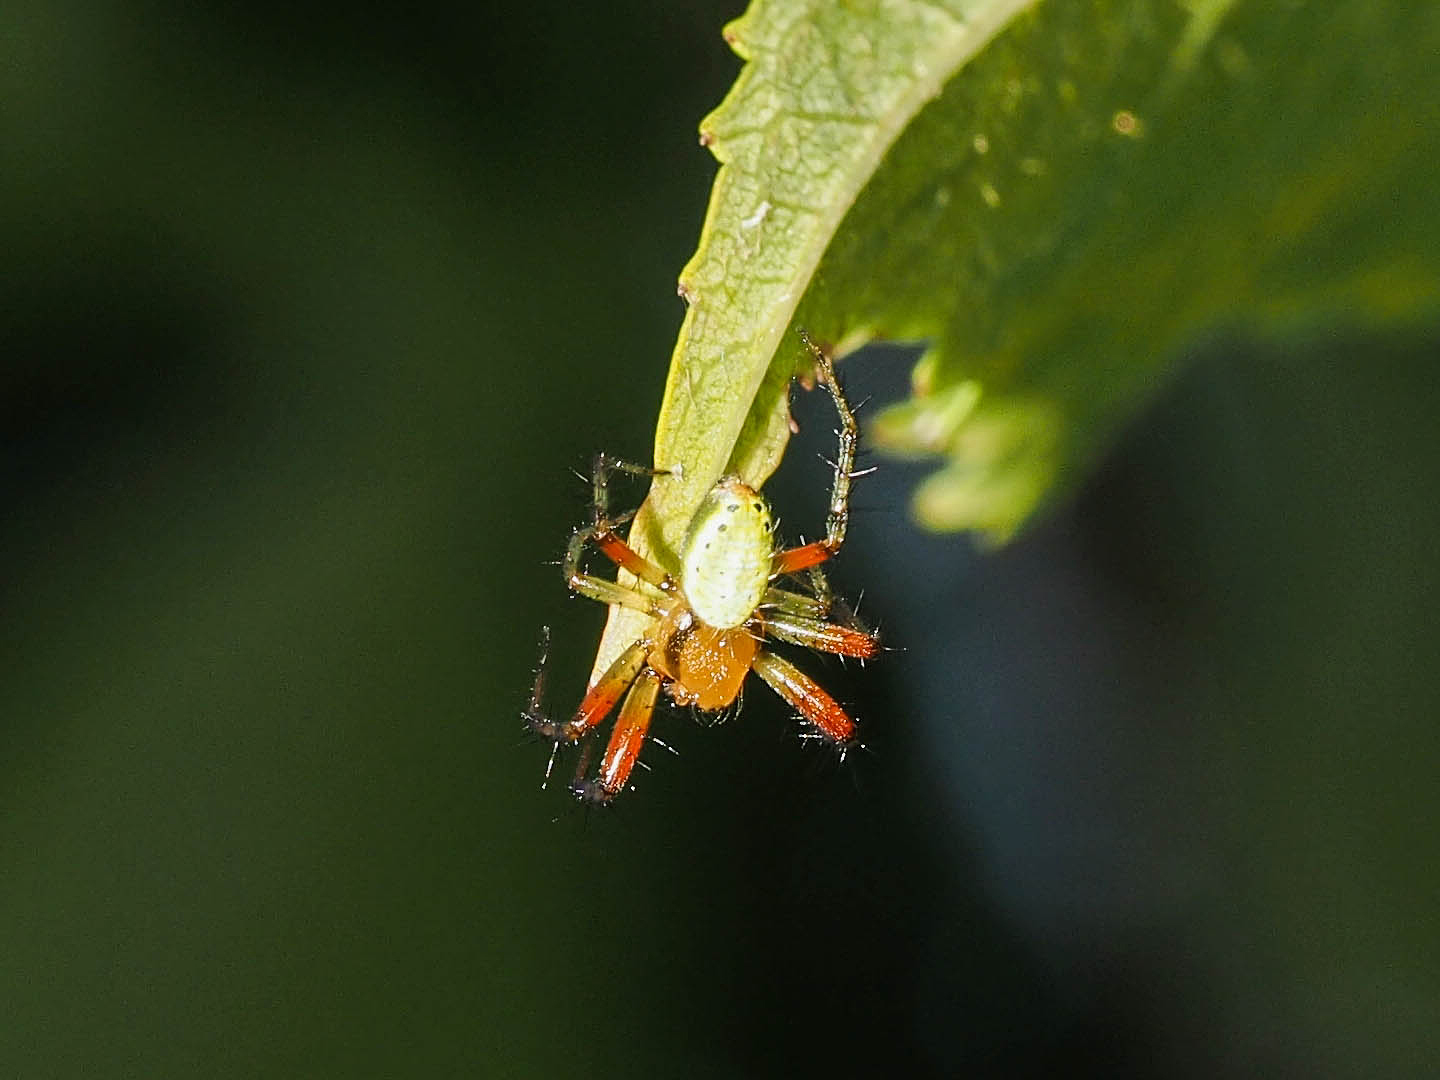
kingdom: Animalia
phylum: Arthropoda
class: Arachnida
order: Araneae
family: Araneidae
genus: Araniella
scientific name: Araniella opisthographa
